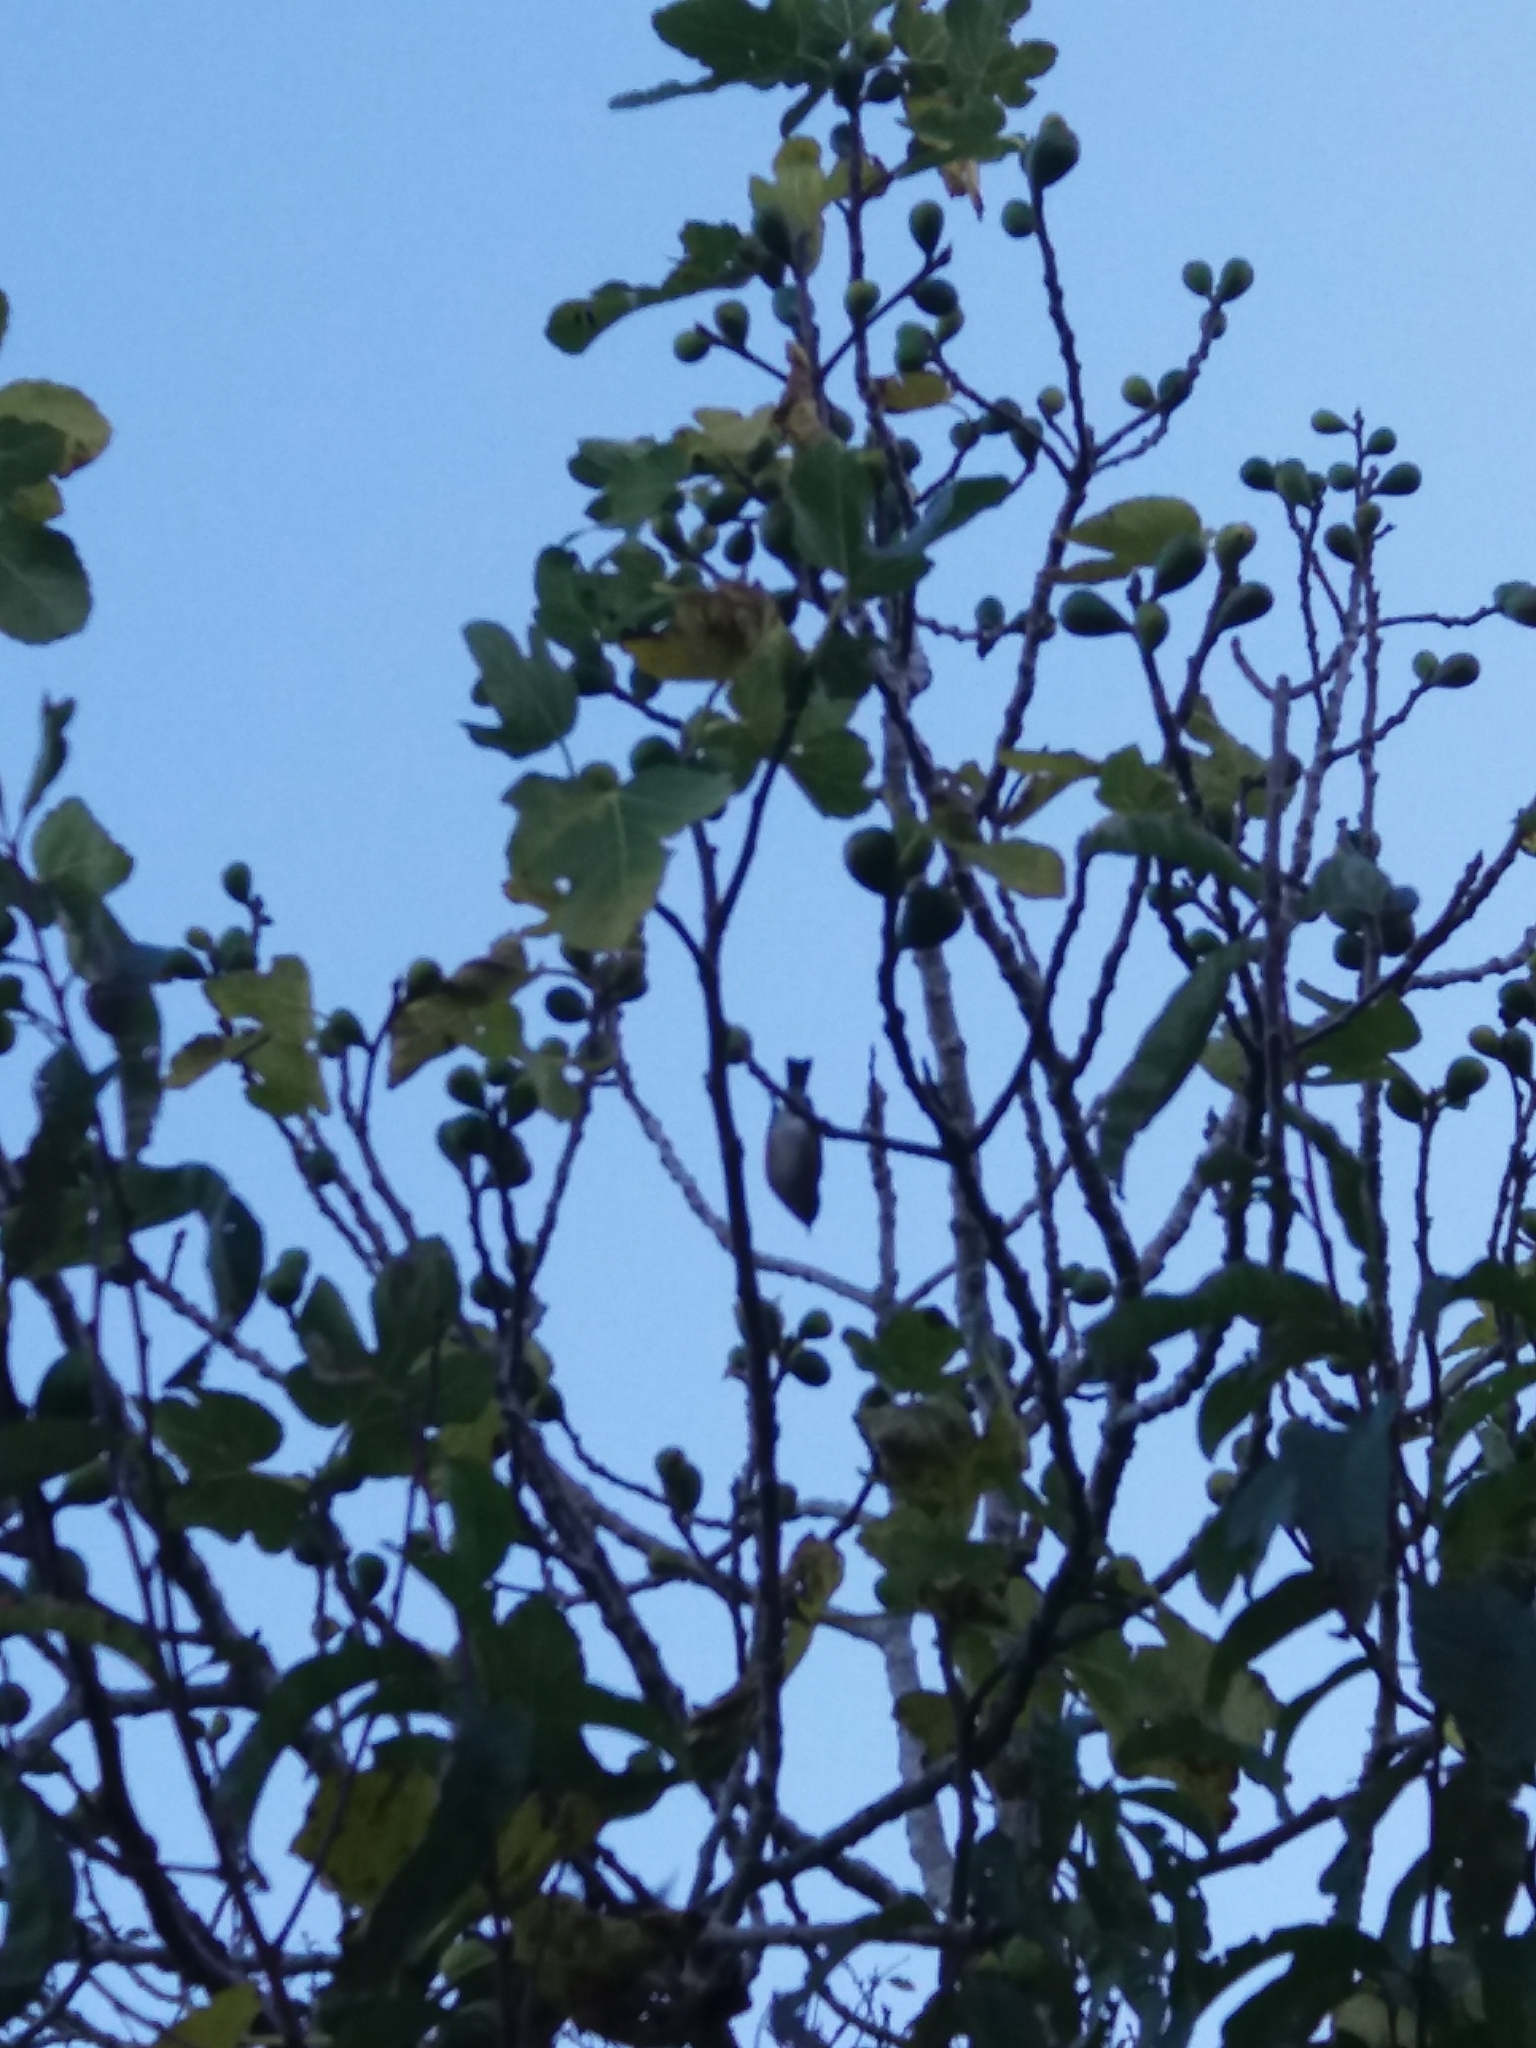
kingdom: Animalia
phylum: Chordata
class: Aves
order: Passeriformes
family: Zosteropidae
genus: Zosterops
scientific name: Zosterops lateralis
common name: Silvereye
